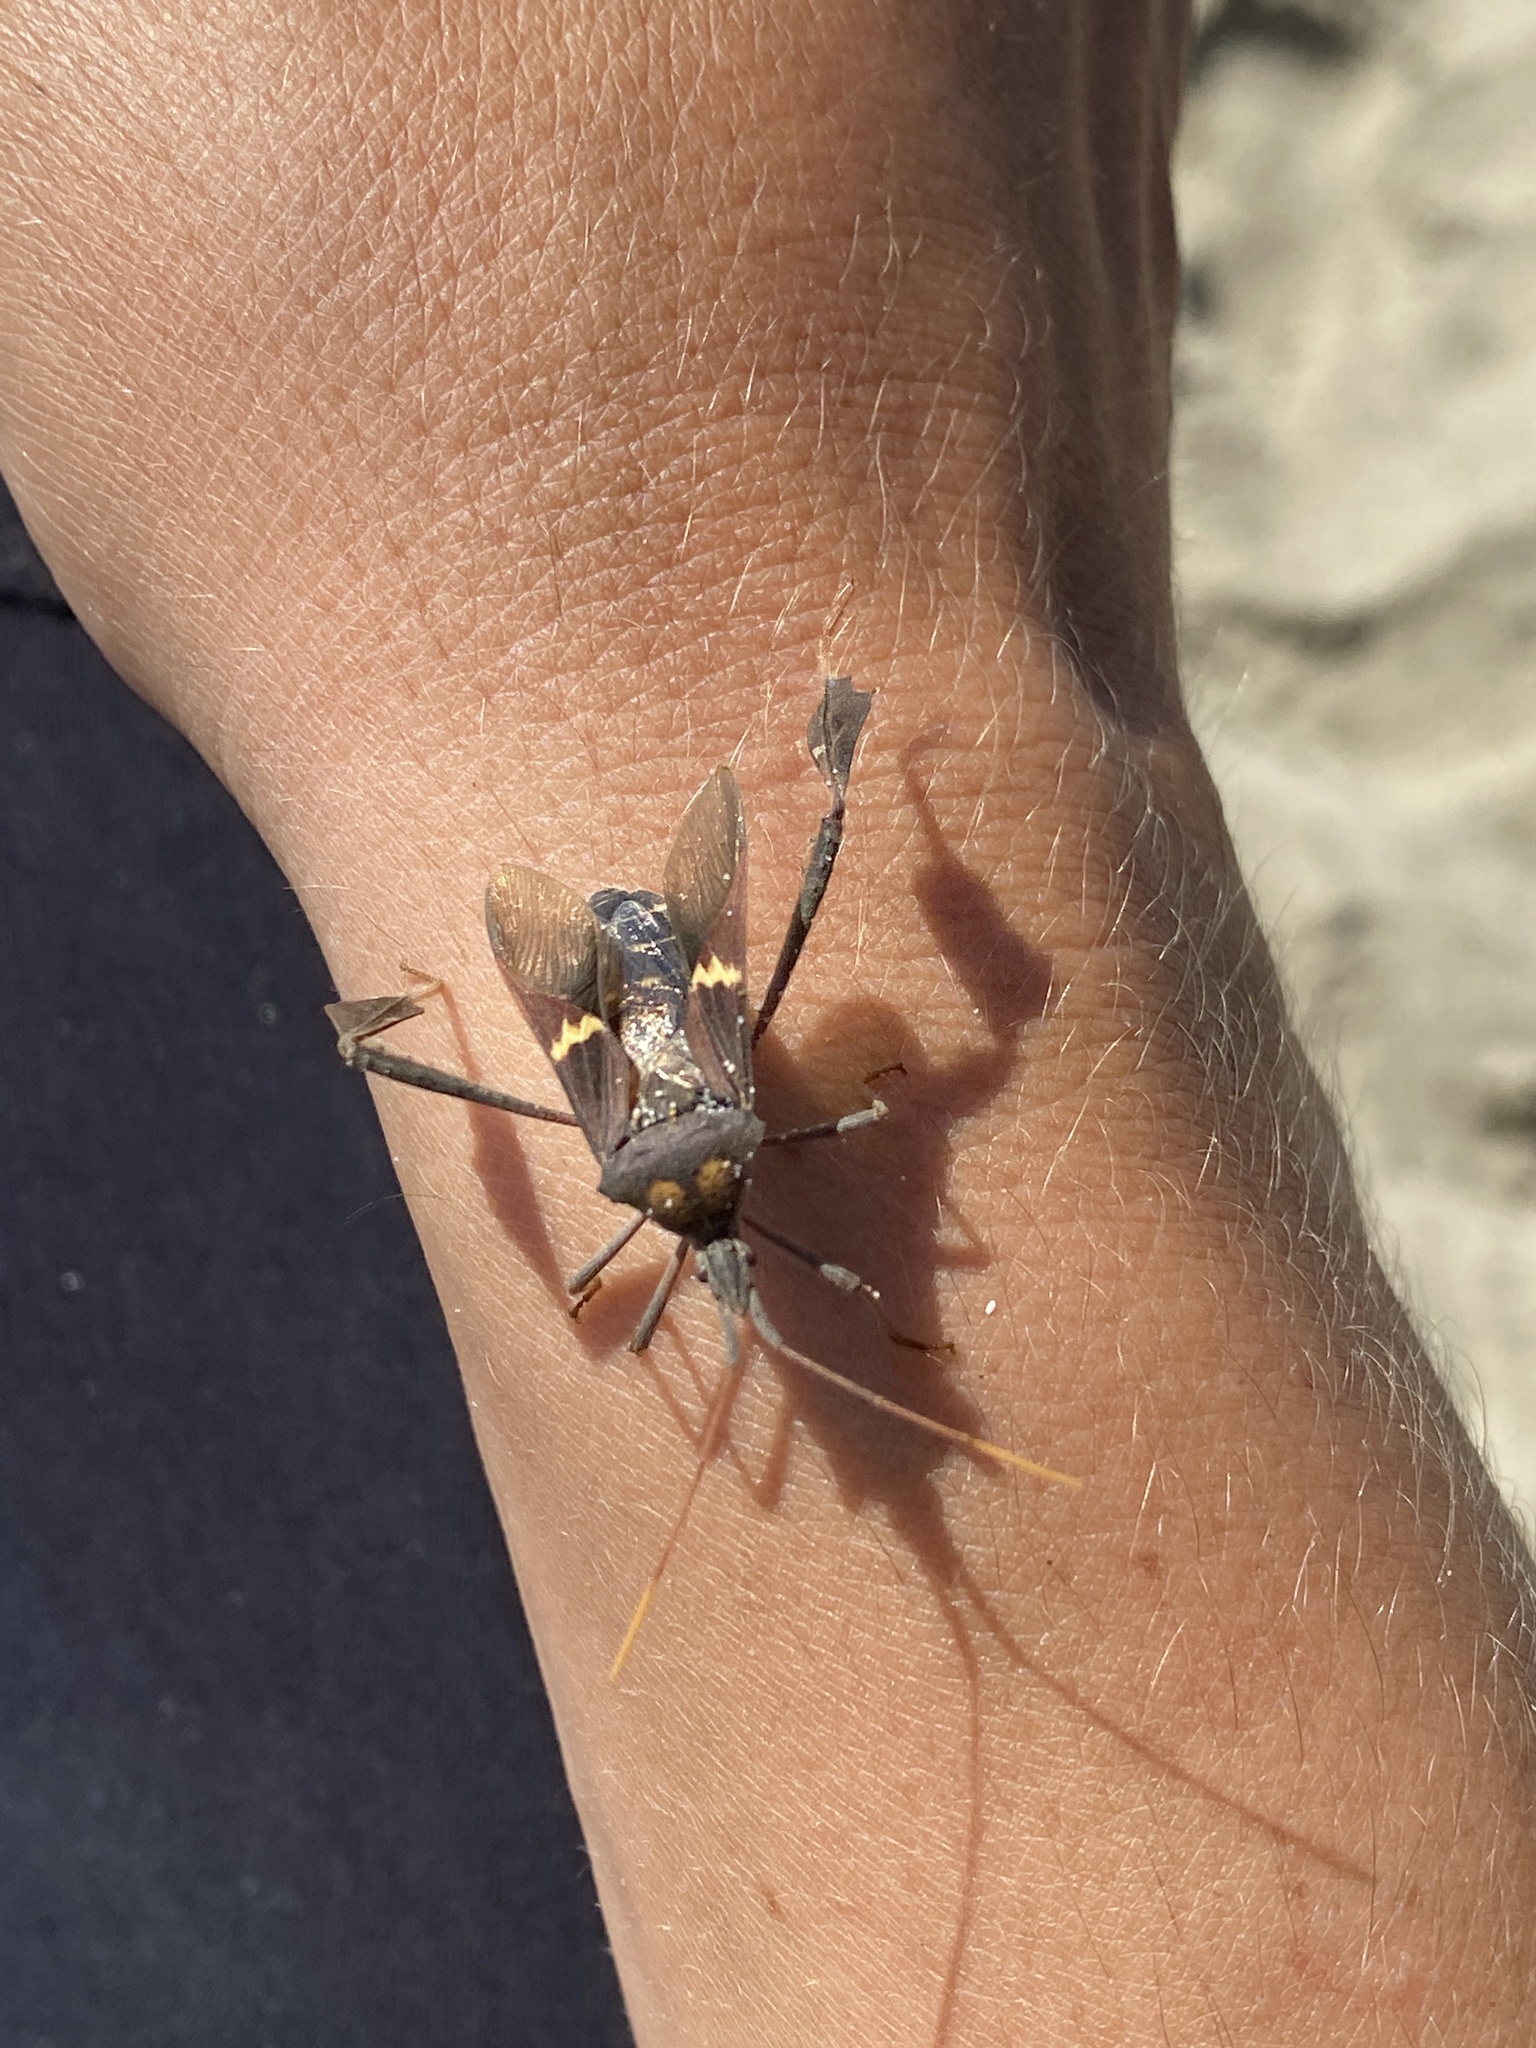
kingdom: Animalia
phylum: Arthropoda
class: Insecta
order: Hemiptera
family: Coreidae
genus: Leptoglossus
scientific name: Leptoglossus zonatus
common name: Large-legged bug
